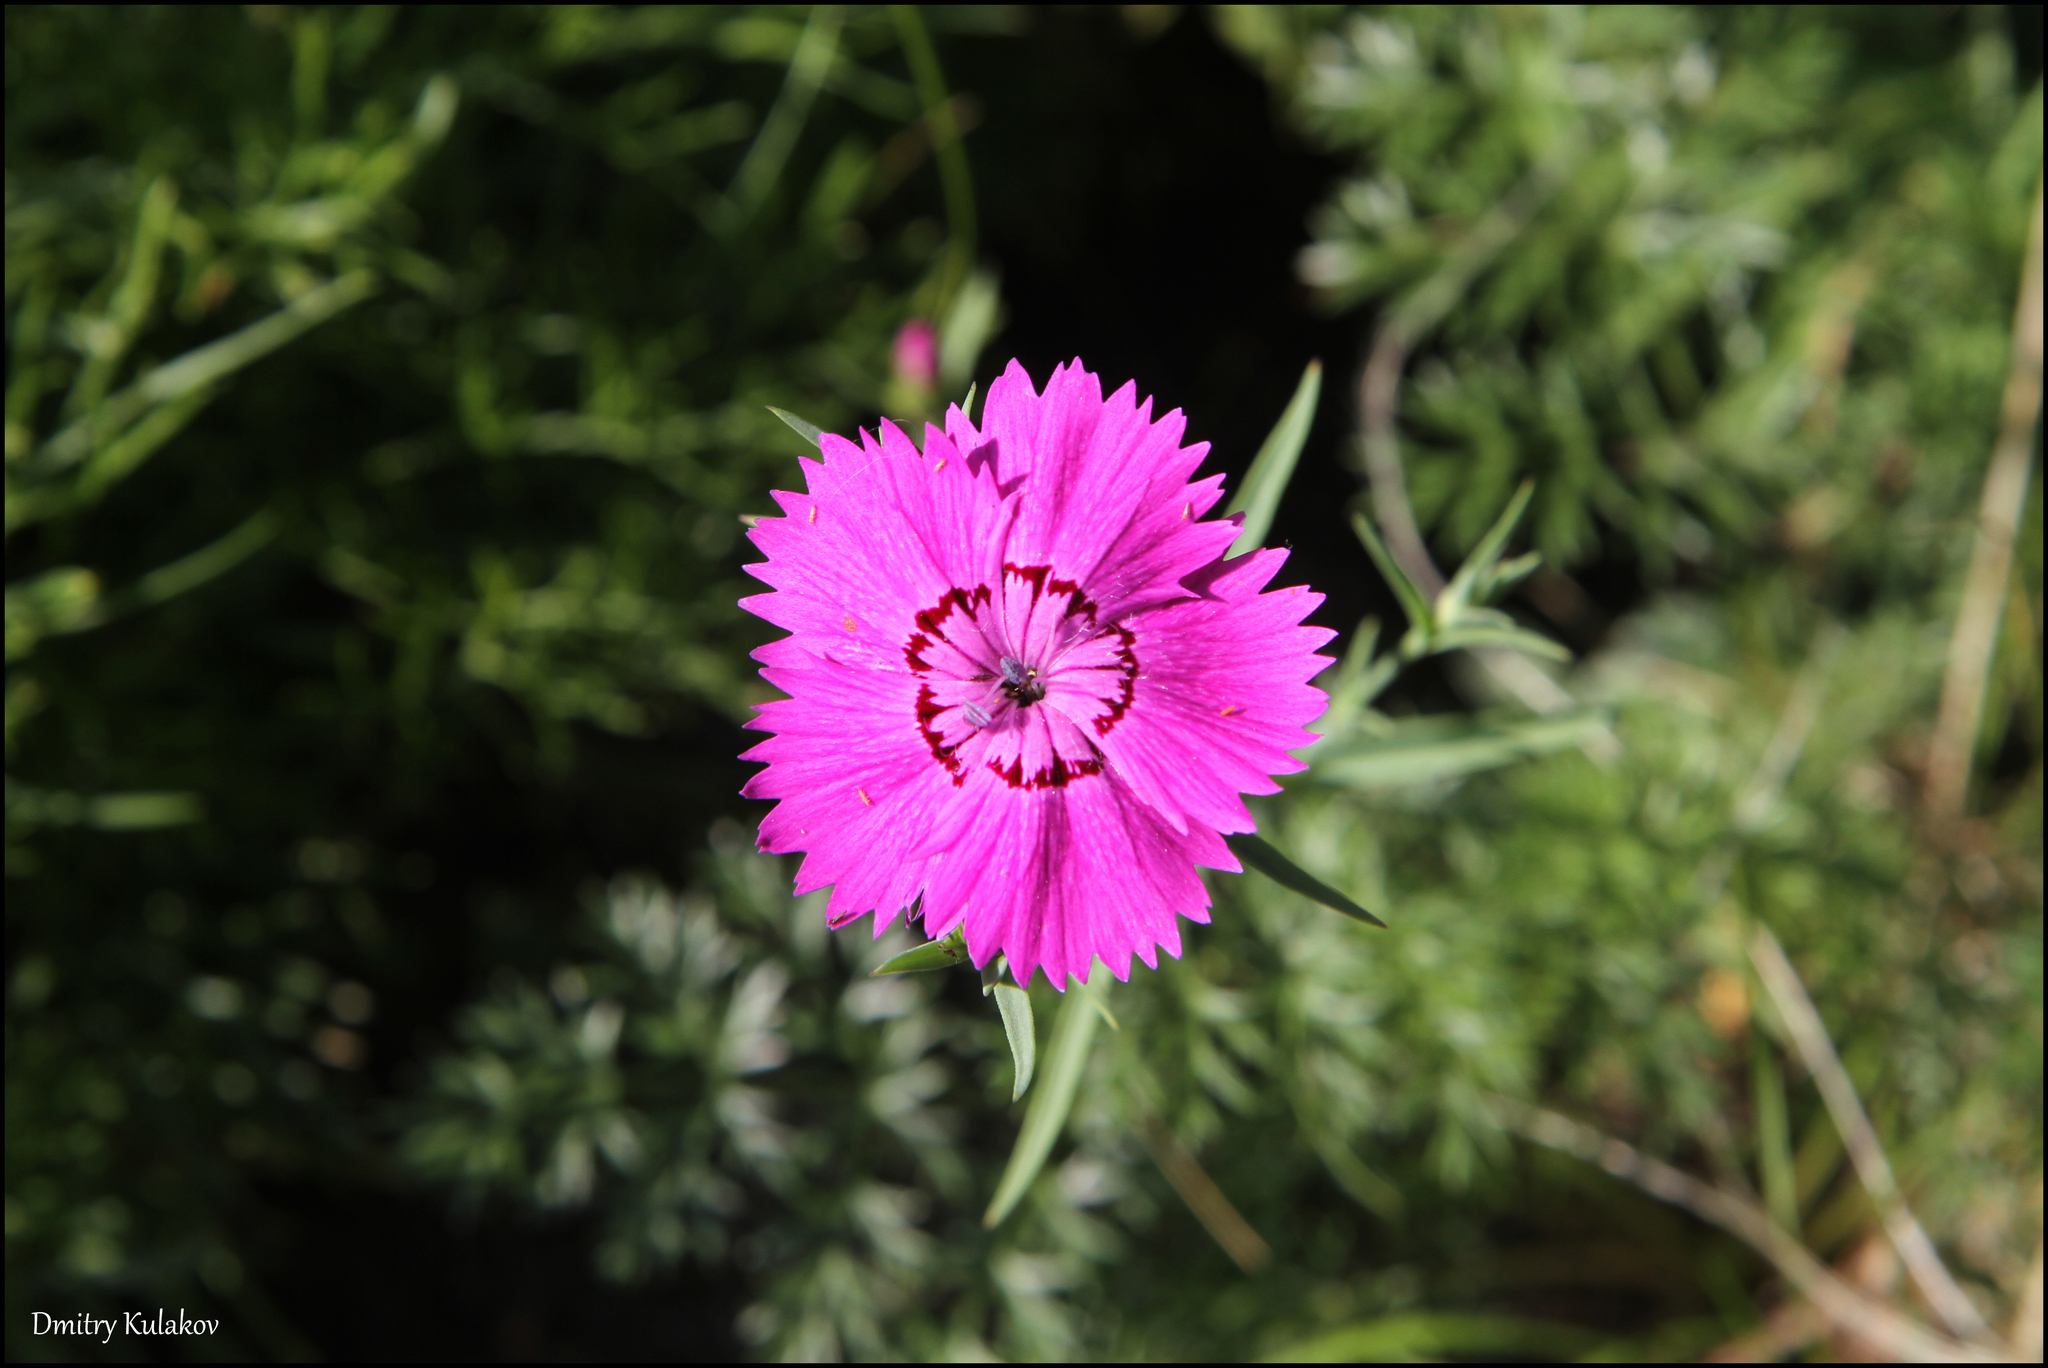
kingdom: Plantae
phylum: Tracheophyta
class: Magnoliopsida
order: Caryophyllales
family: Caryophyllaceae
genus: Dianthus
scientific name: Dianthus chinensis
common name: Rainbow pink
